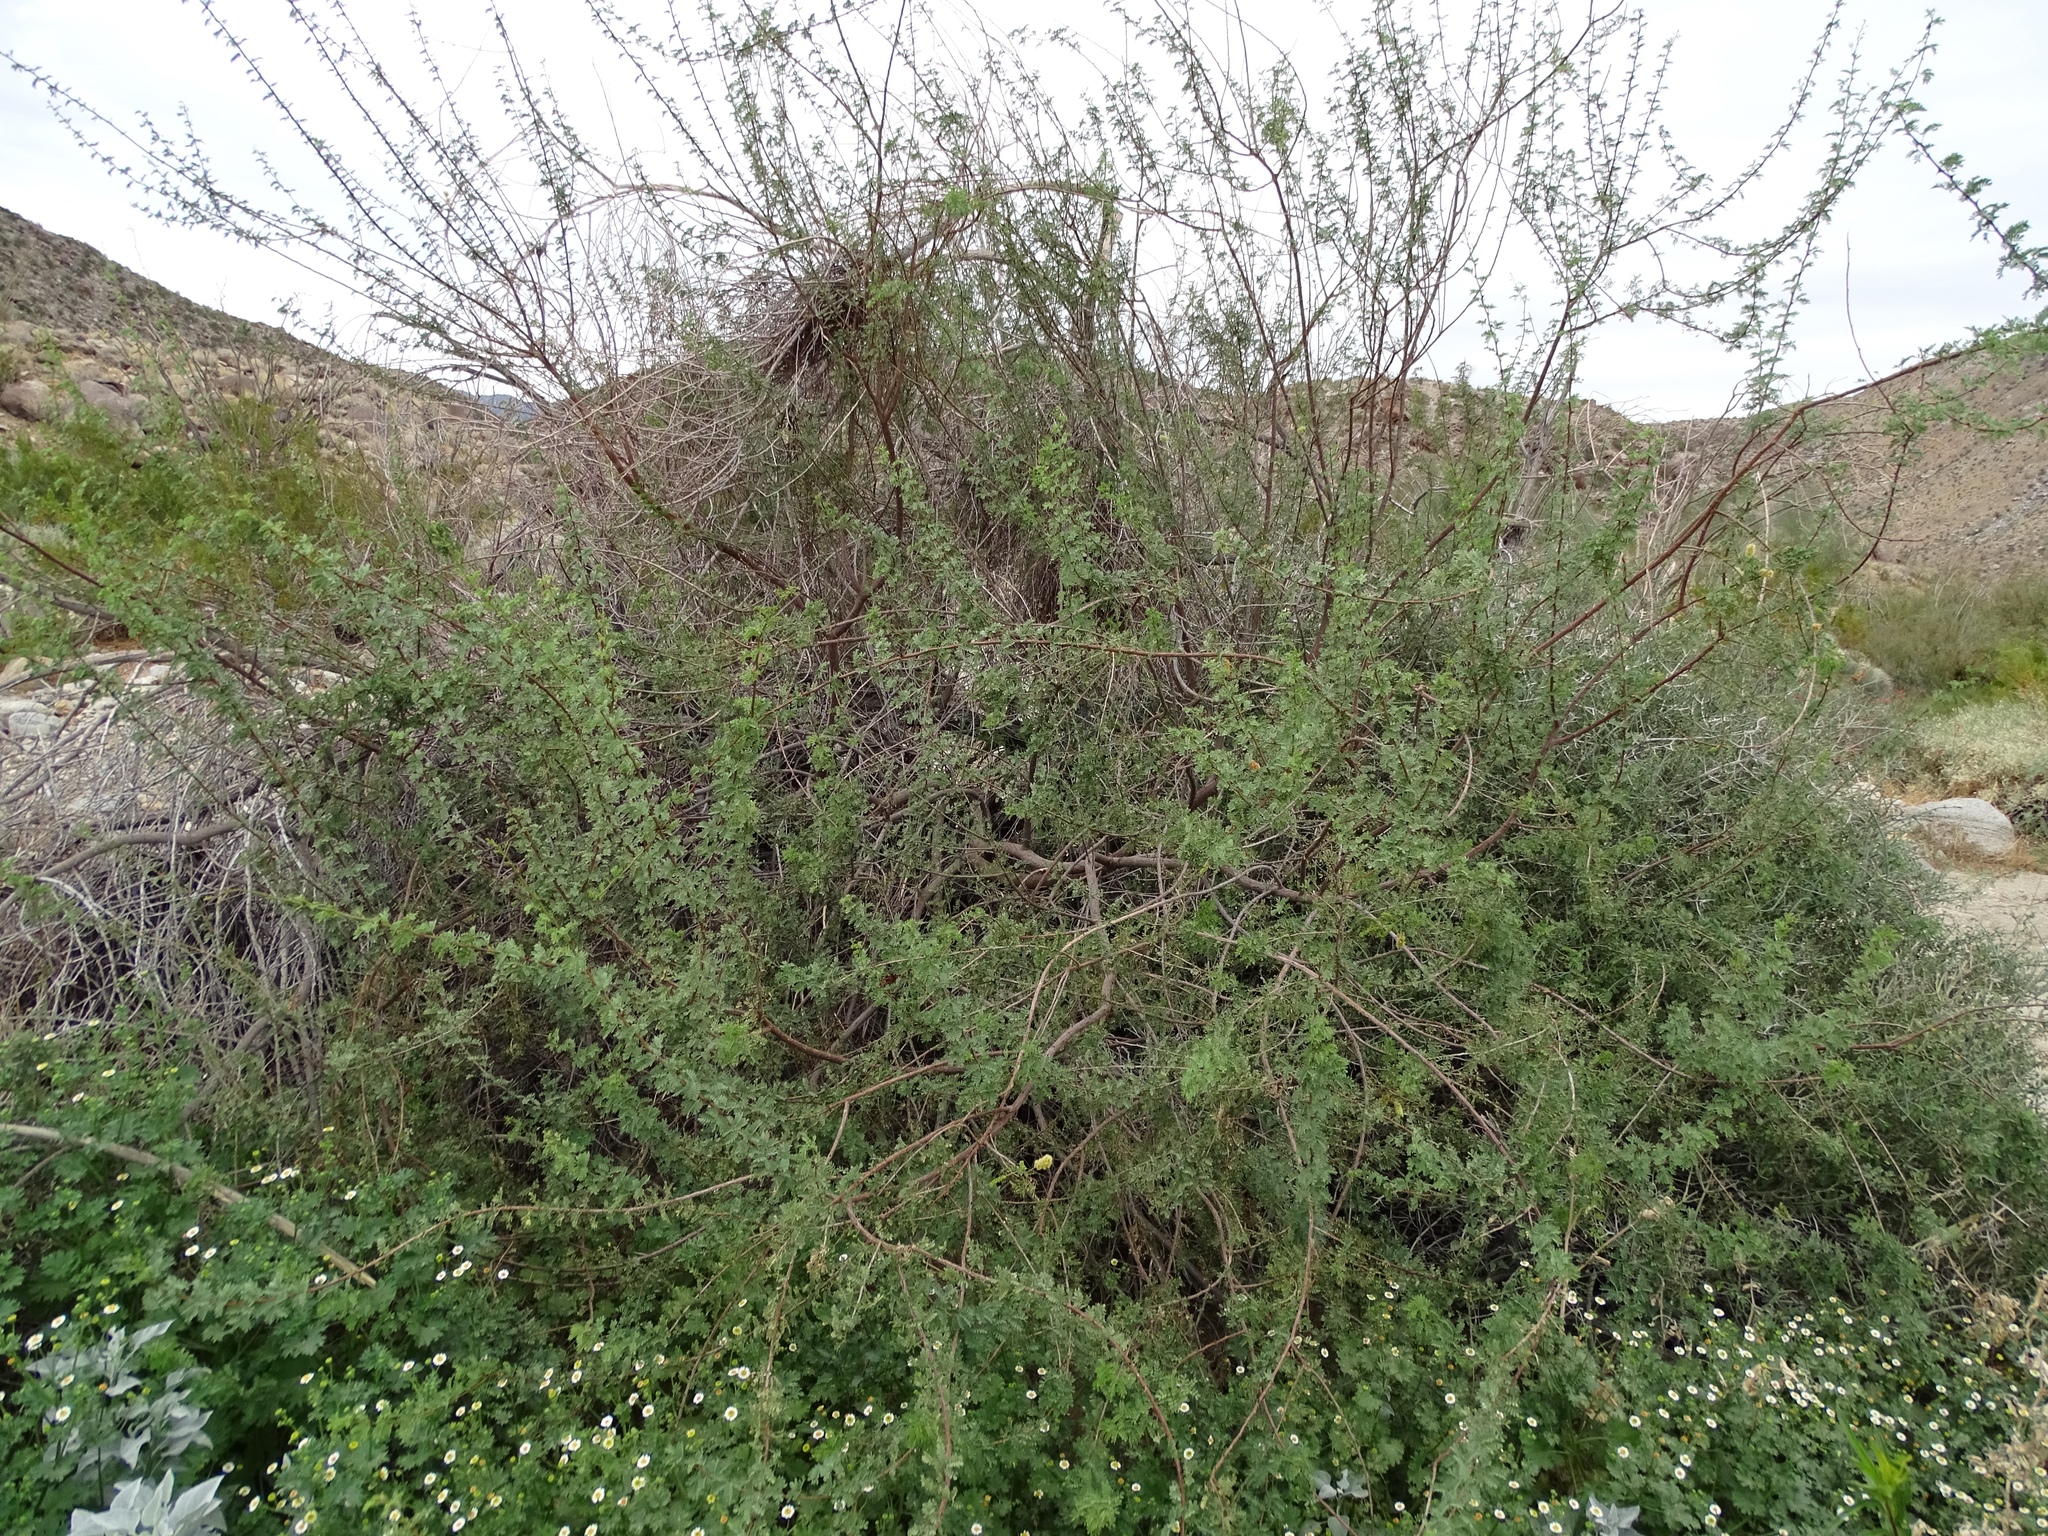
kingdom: Plantae
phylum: Tracheophyta
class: Magnoliopsida
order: Fabales
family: Fabaceae
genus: Senegalia
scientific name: Senegalia greggii
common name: Texas-mimosa
